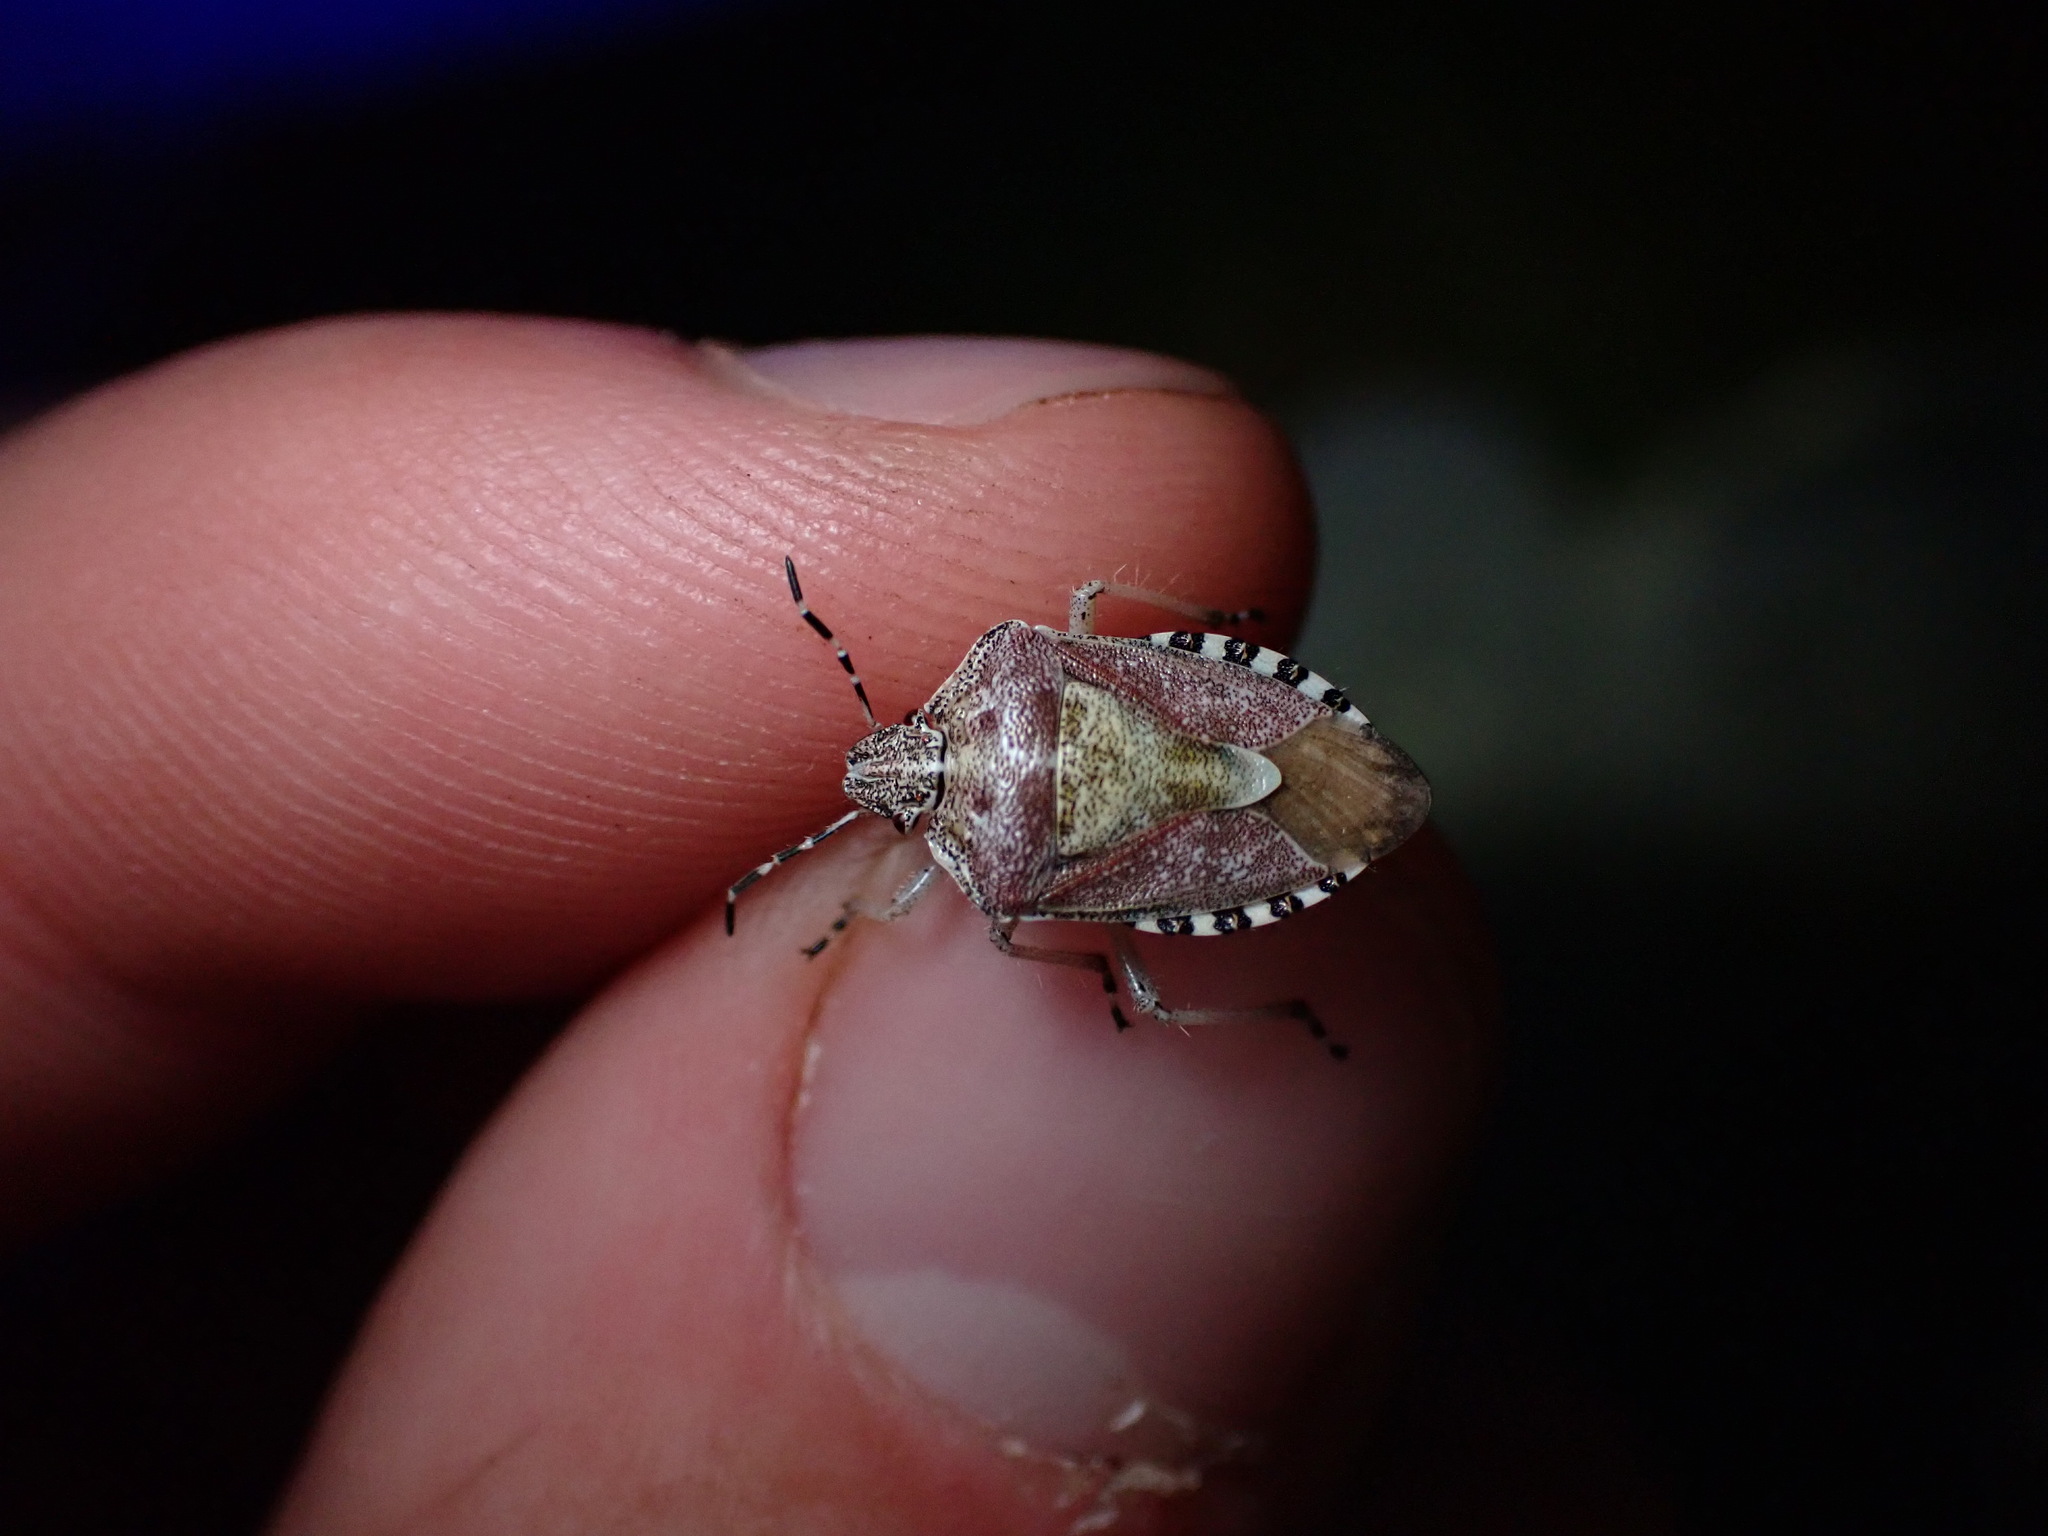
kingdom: Animalia
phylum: Arthropoda
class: Insecta
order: Hemiptera
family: Pentatomidae
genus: Dolycoris
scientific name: Dolycoris baccarum
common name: Sloe bug
